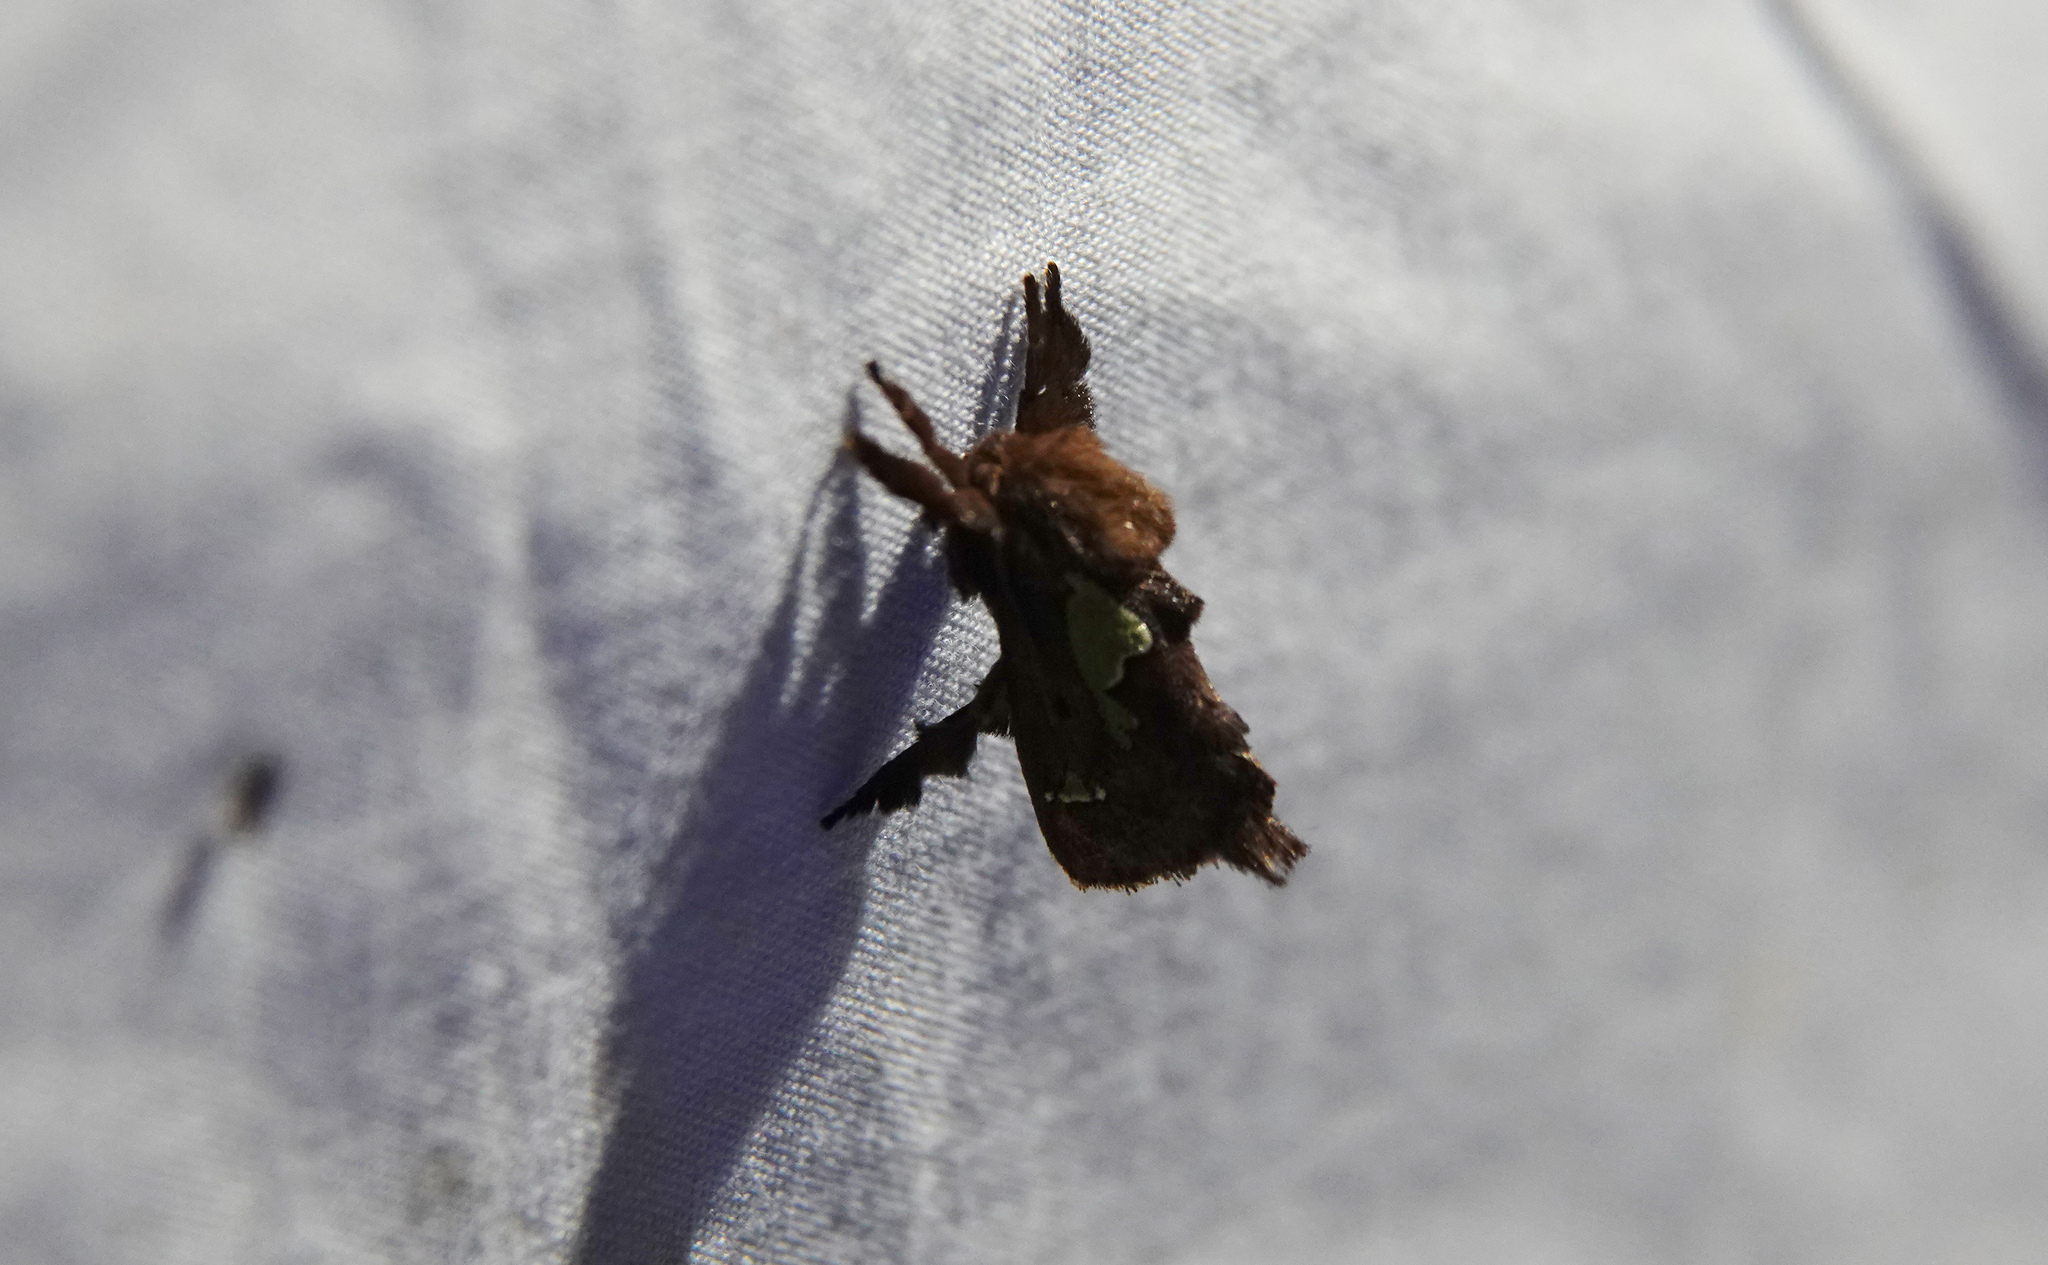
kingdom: Animalia
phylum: Arthropoda
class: Insecta
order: Lepidoptera
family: Limacodidae
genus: Euclea
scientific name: Euclea delphinii
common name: Spiny oak-slug moth
